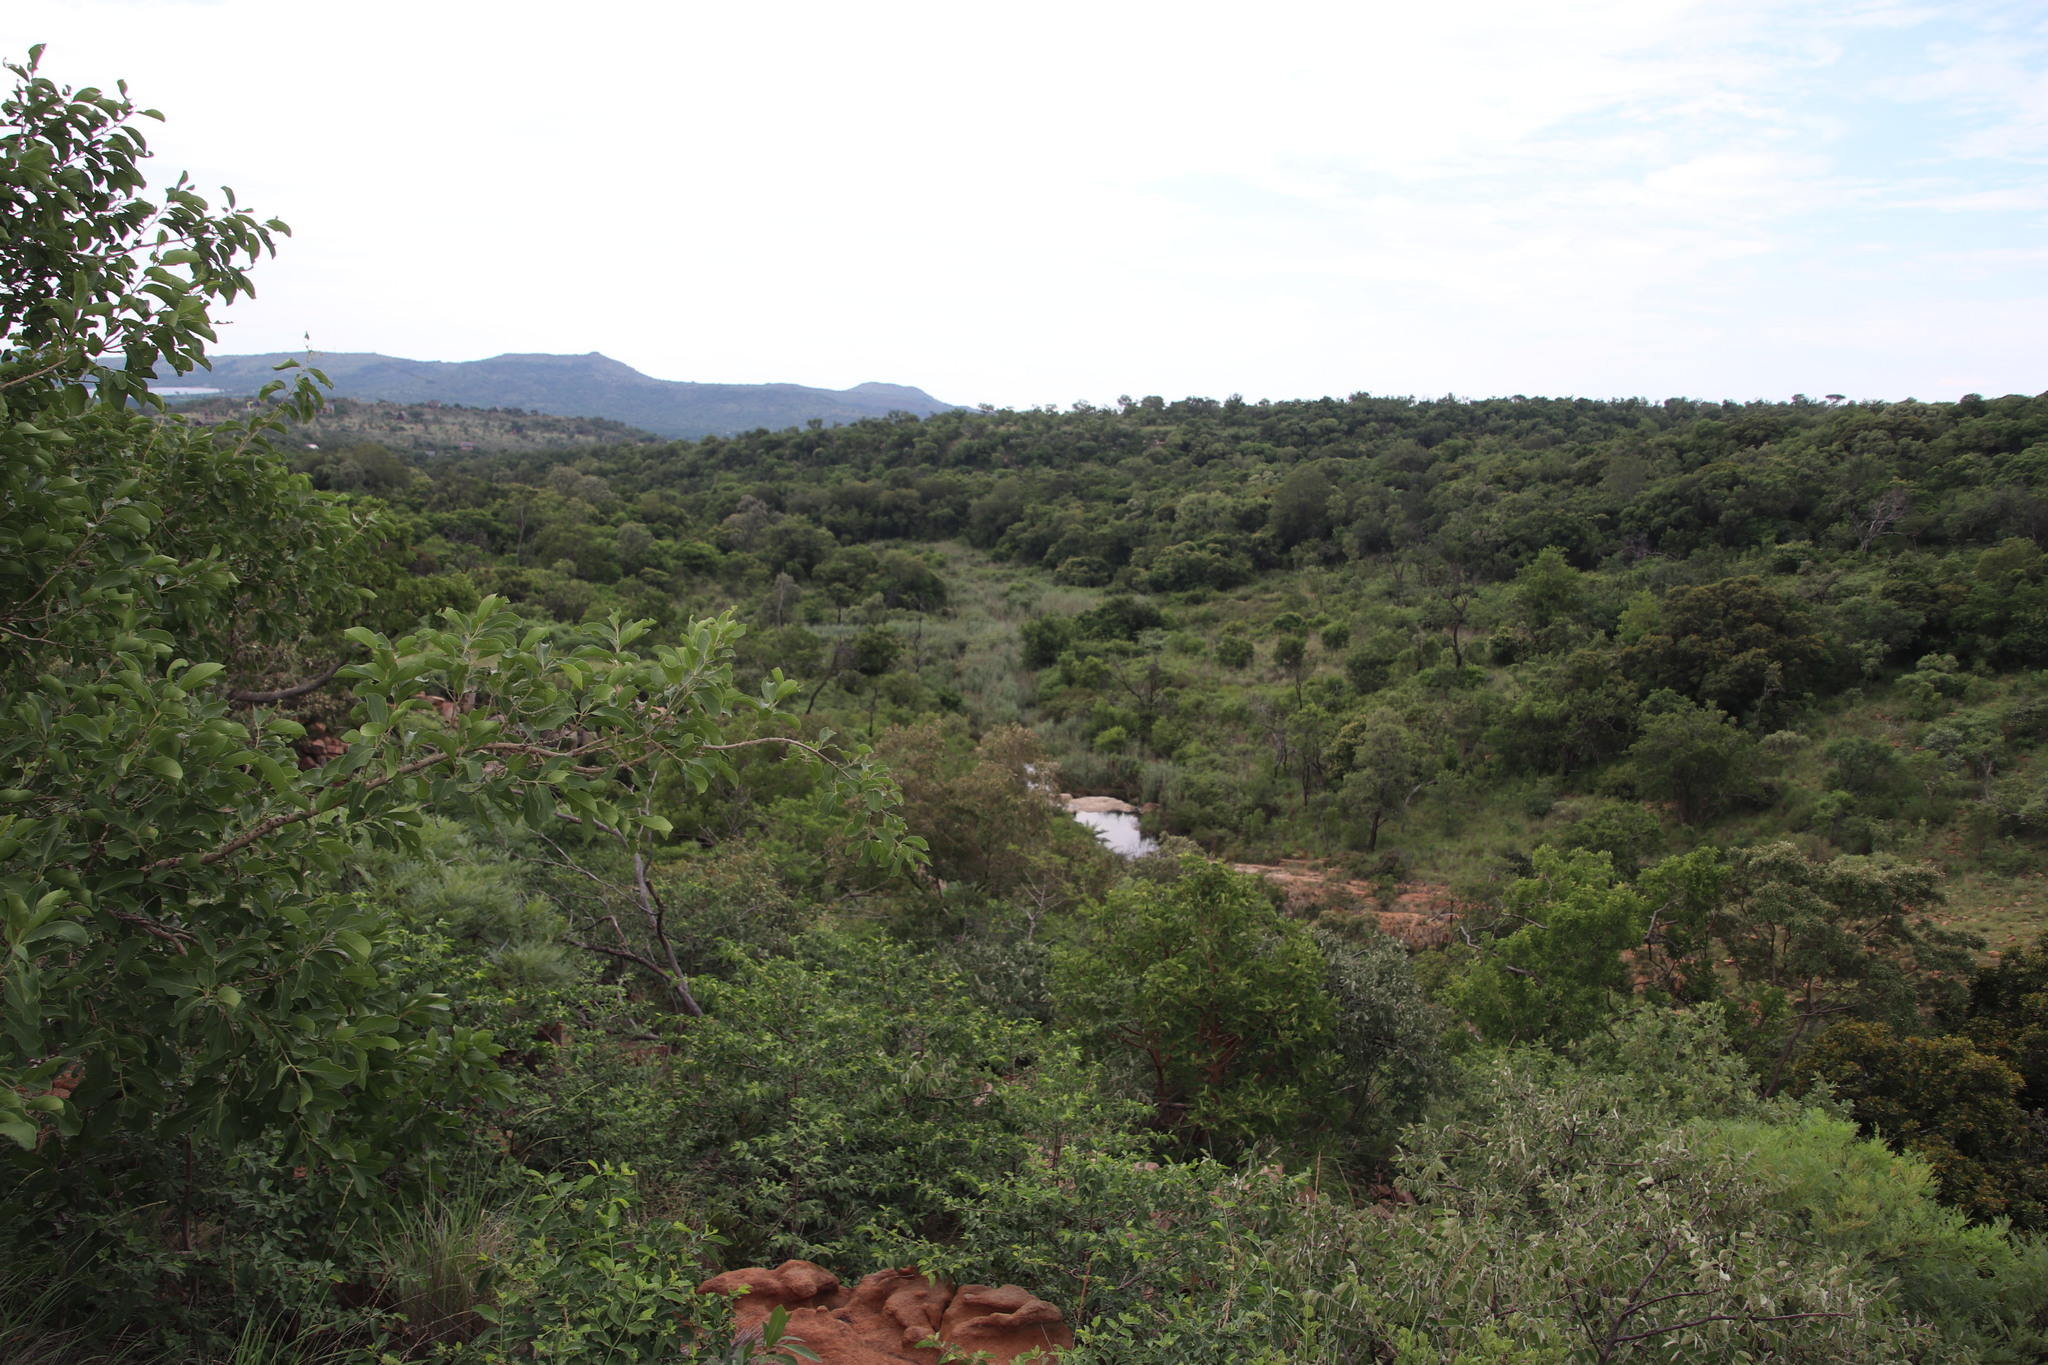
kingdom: Plantae
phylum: Tracheophyta
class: Liliopsida
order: Poales
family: Poaceae
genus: Phragmites
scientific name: Phragmites australis
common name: Common reed
